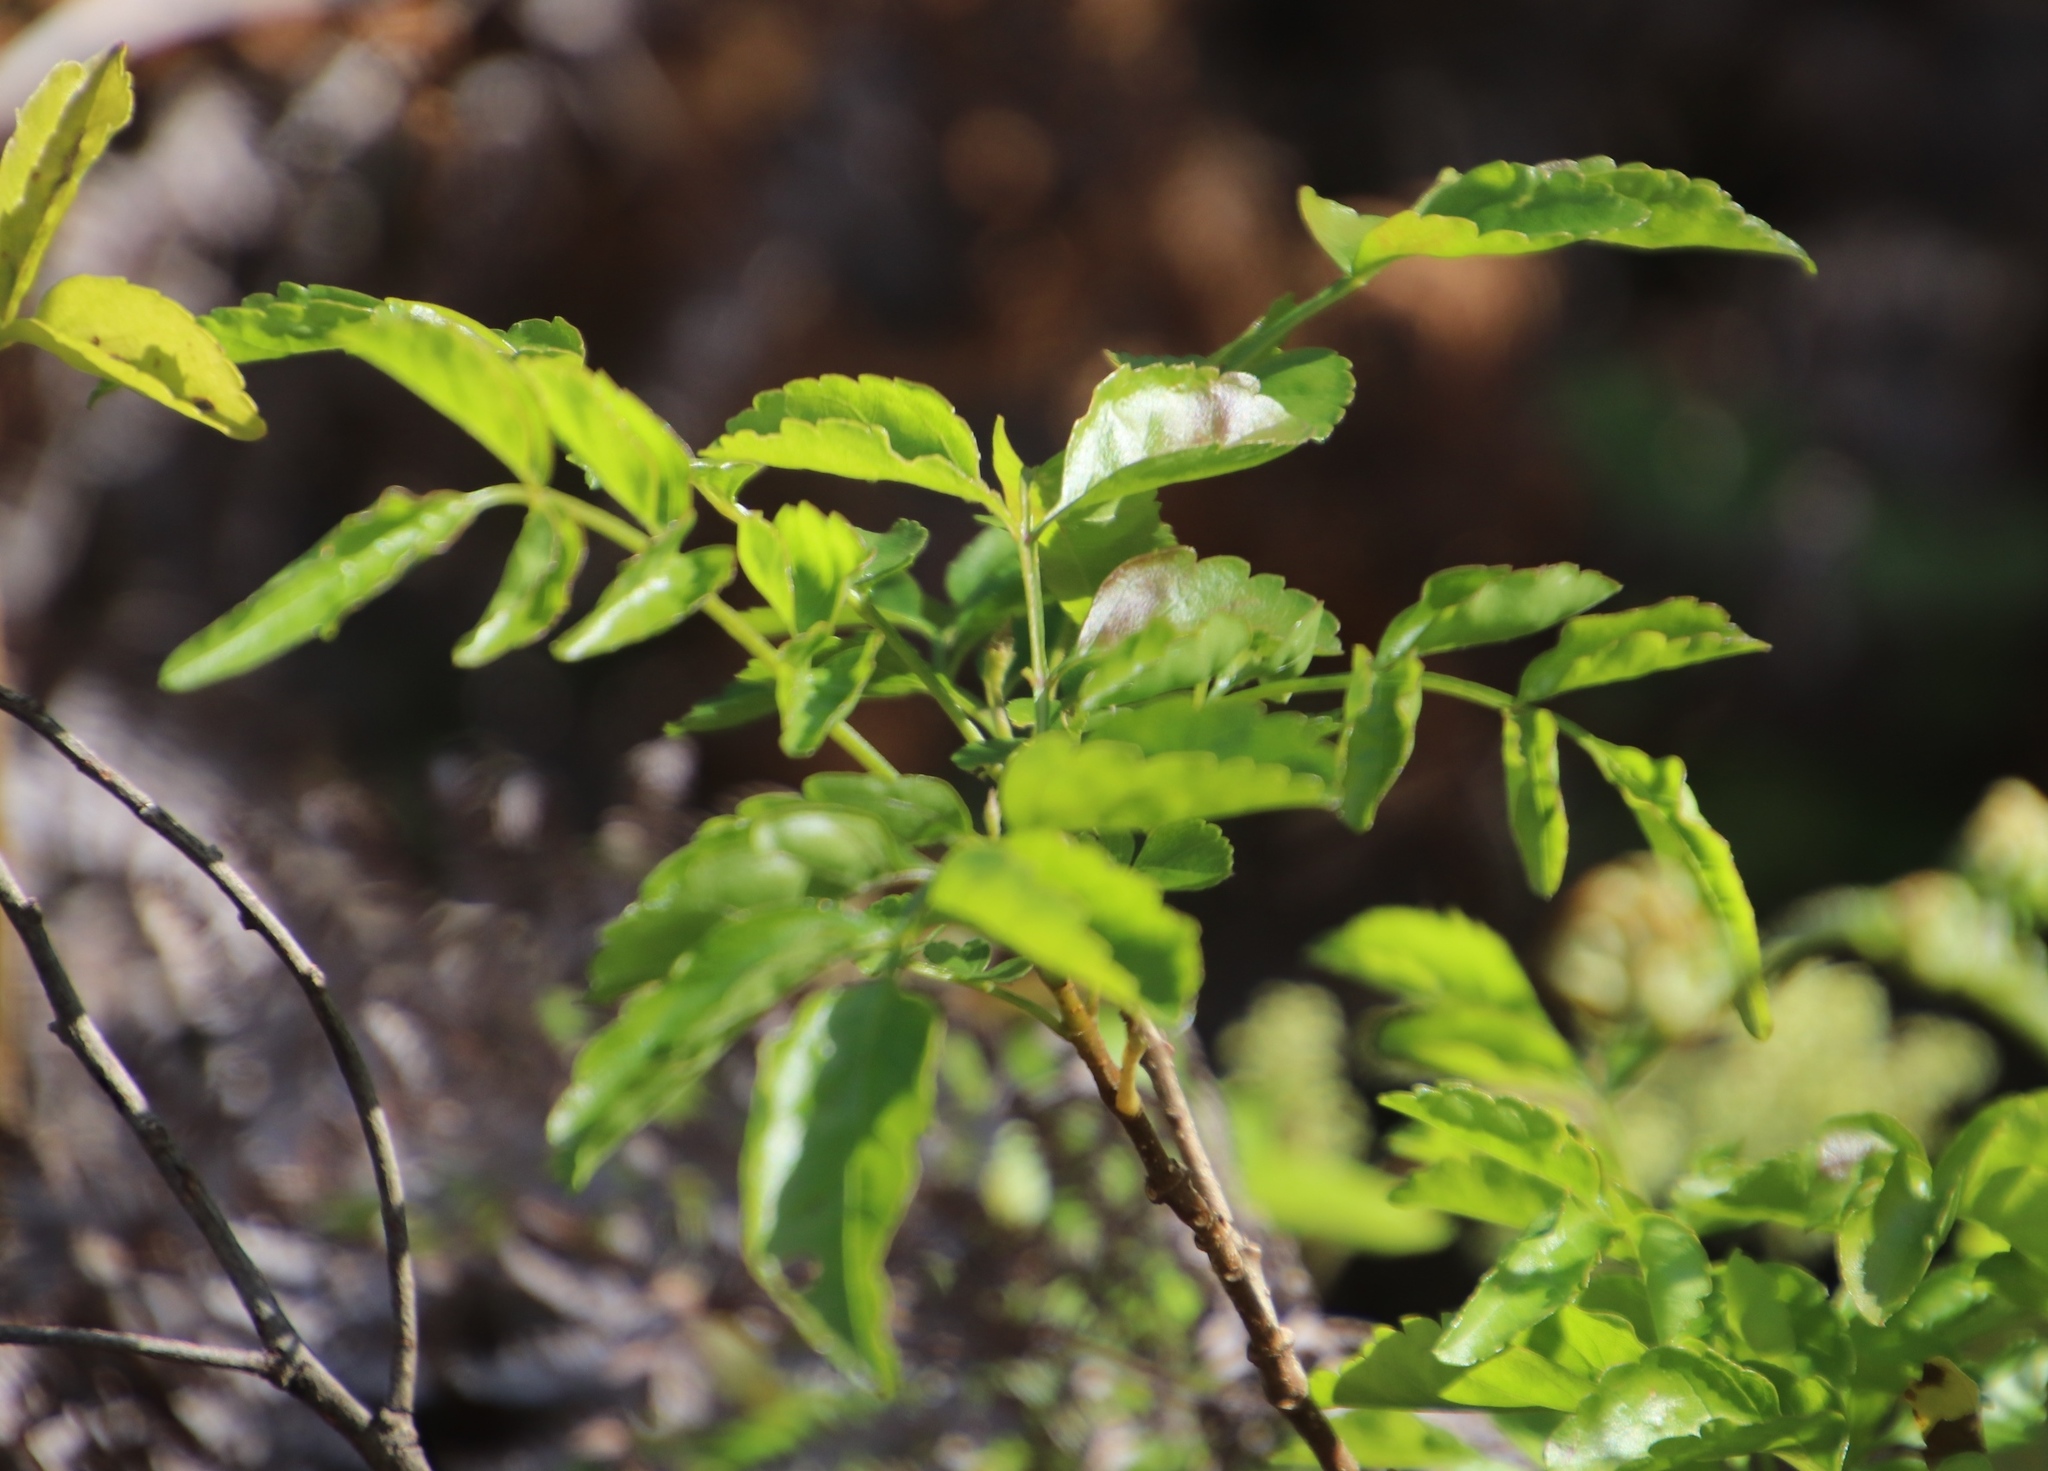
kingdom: Plantae
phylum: Tracheophyta
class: Magnoliopsida
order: Lamiales
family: Bignoniaceae
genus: Tecomaria
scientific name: Tecomaria capensis
